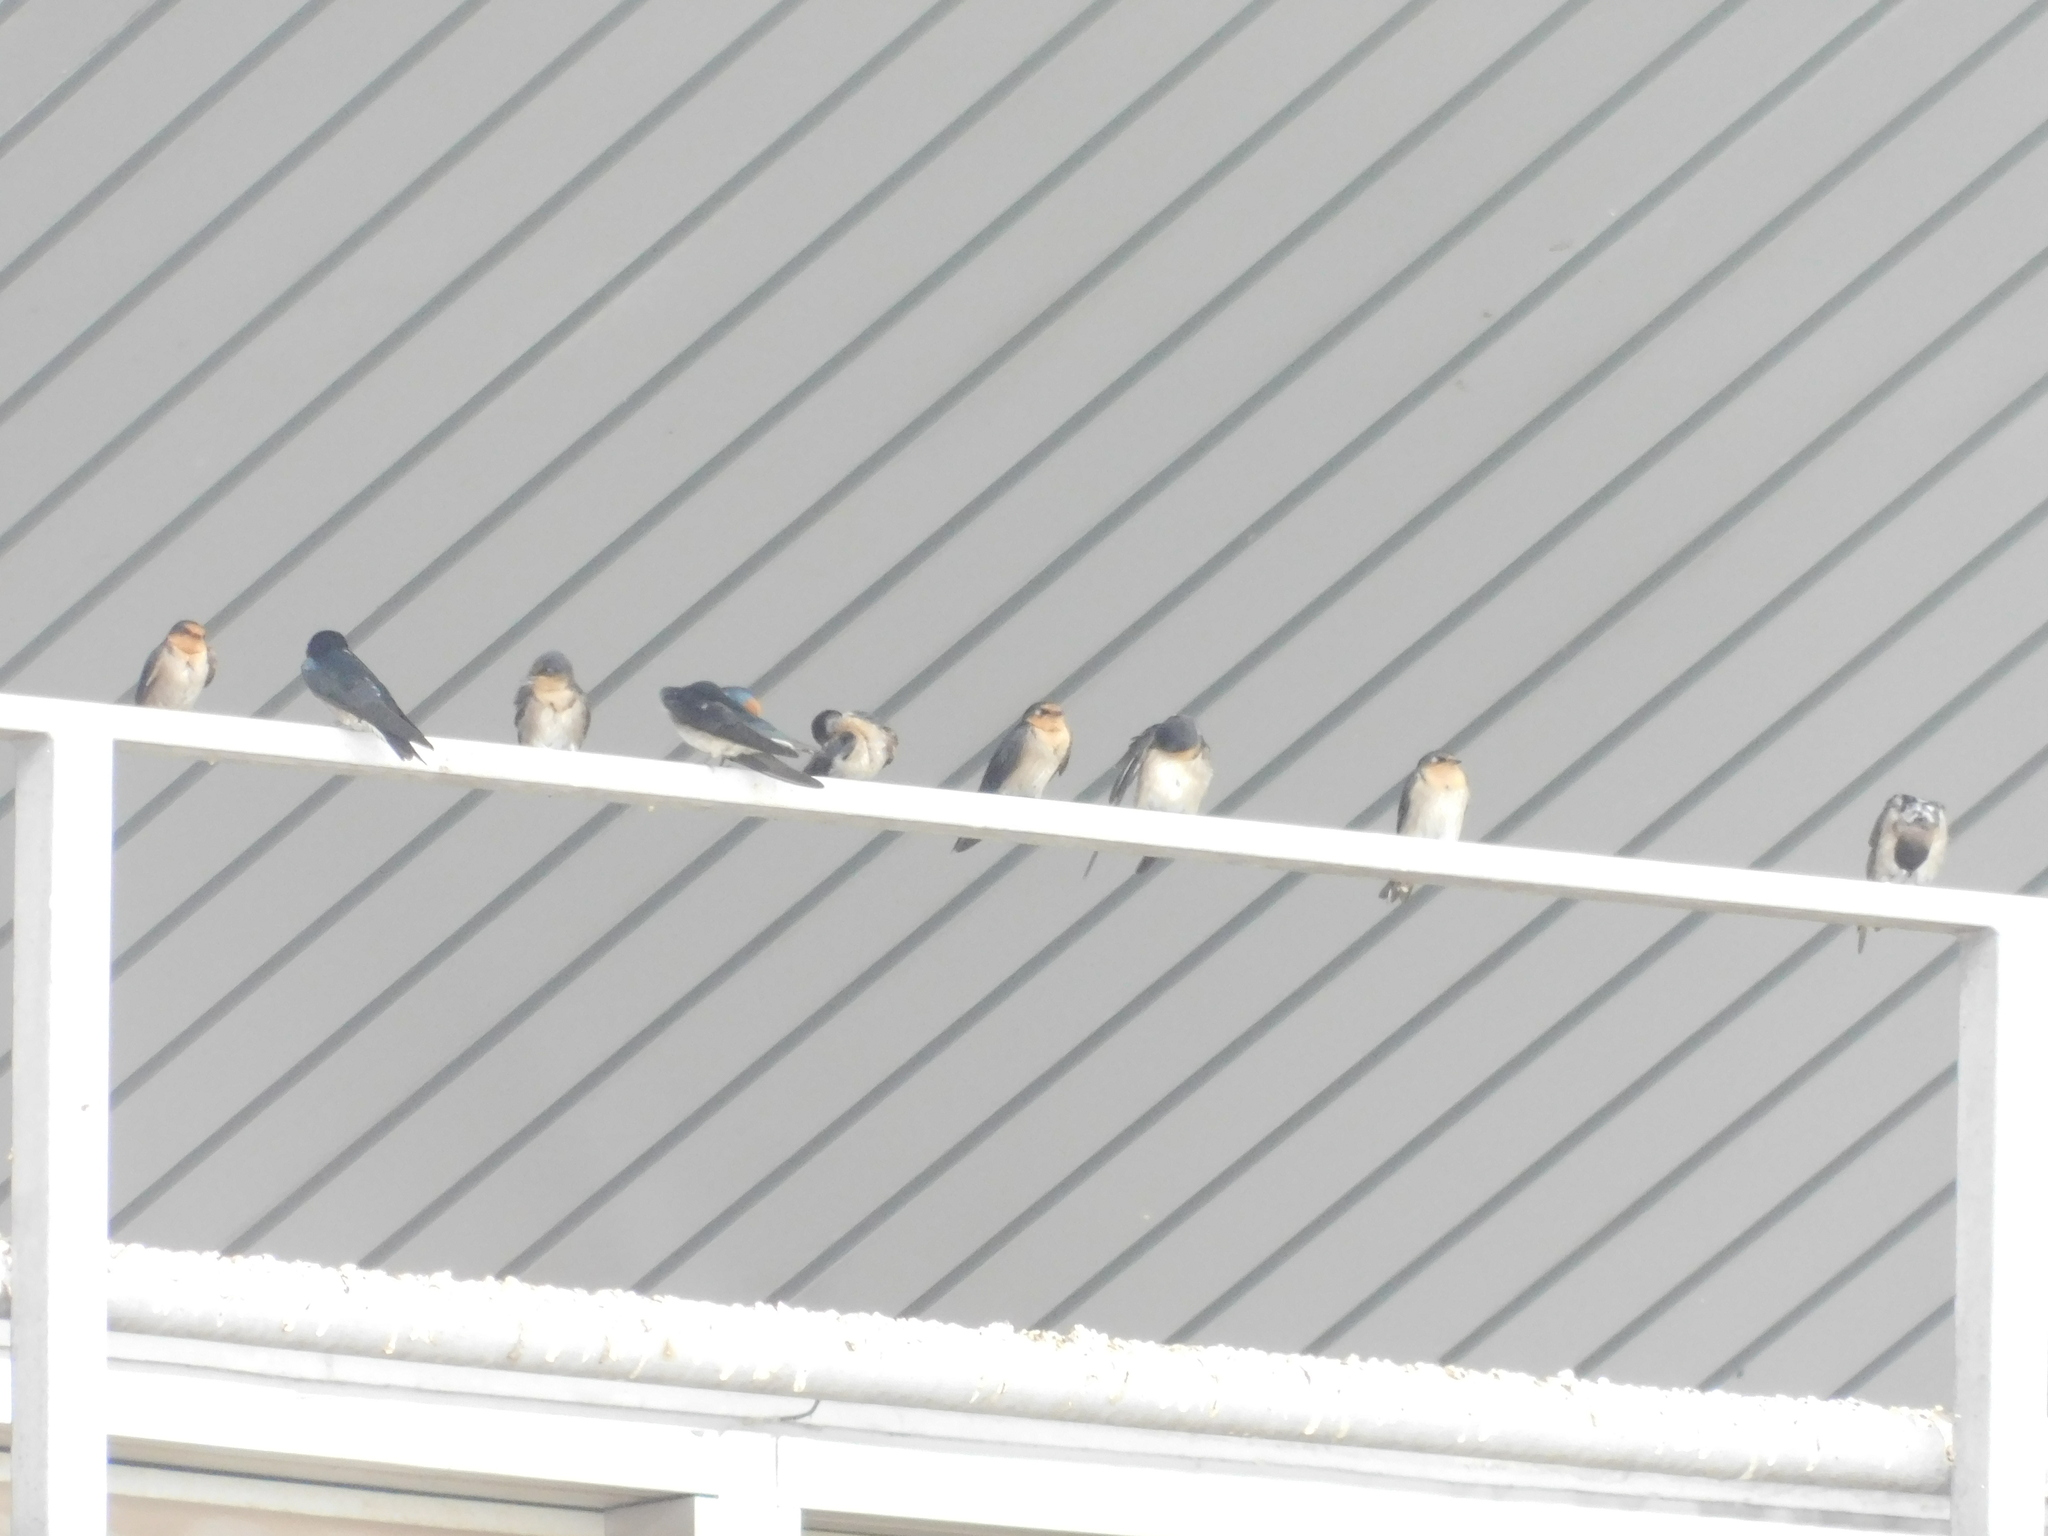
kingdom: Animalia
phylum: Chordata
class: Aves
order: Passeriformes
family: Hirundinidae
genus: Hirundo
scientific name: Hirundo tahitica
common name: Pacific swallow
